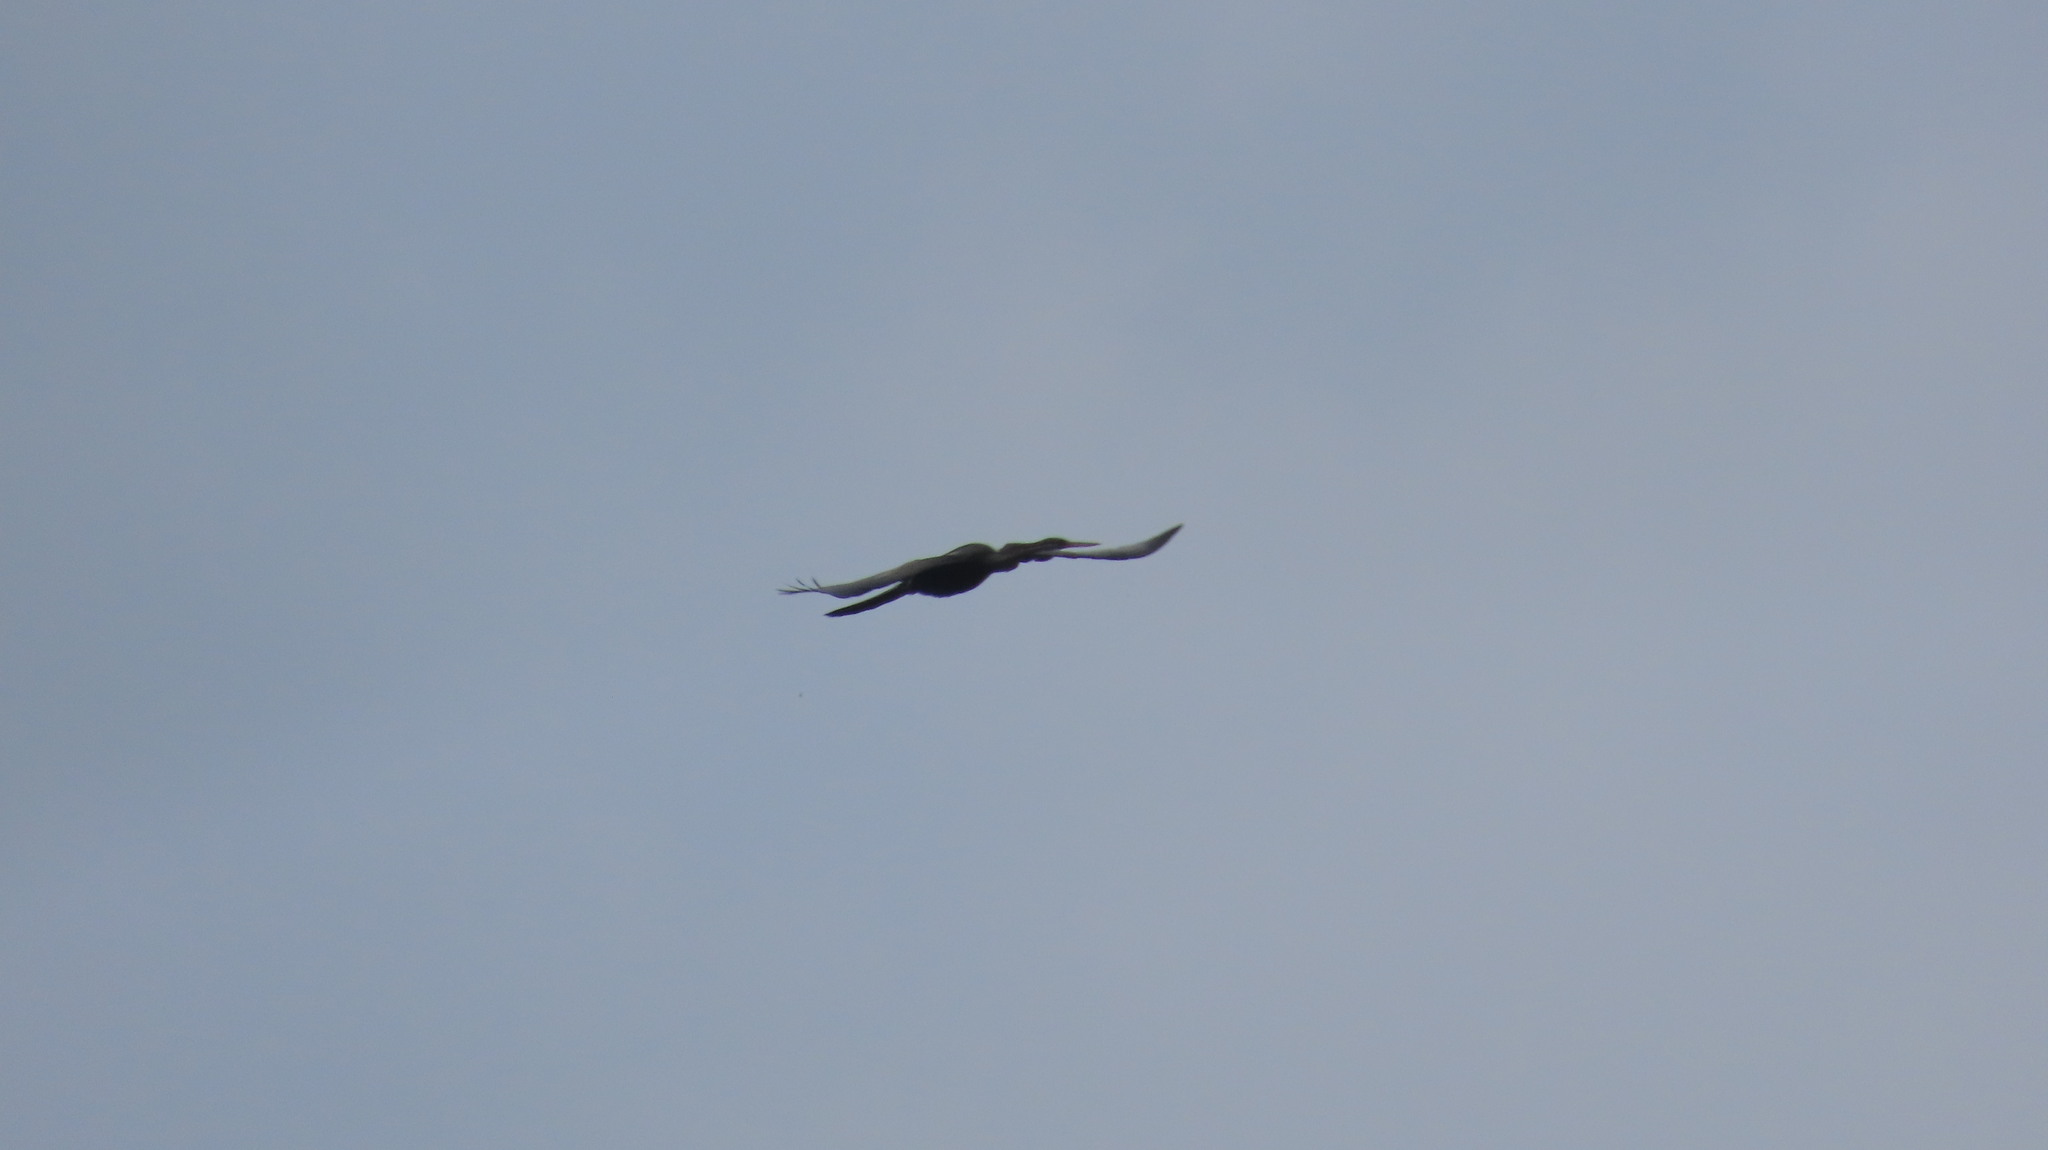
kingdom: Animalia
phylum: Chordata
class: Aves
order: Suliformes
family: Anhingidae
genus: Anhinga
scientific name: Anhinga melanogaster
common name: Oriental darter
